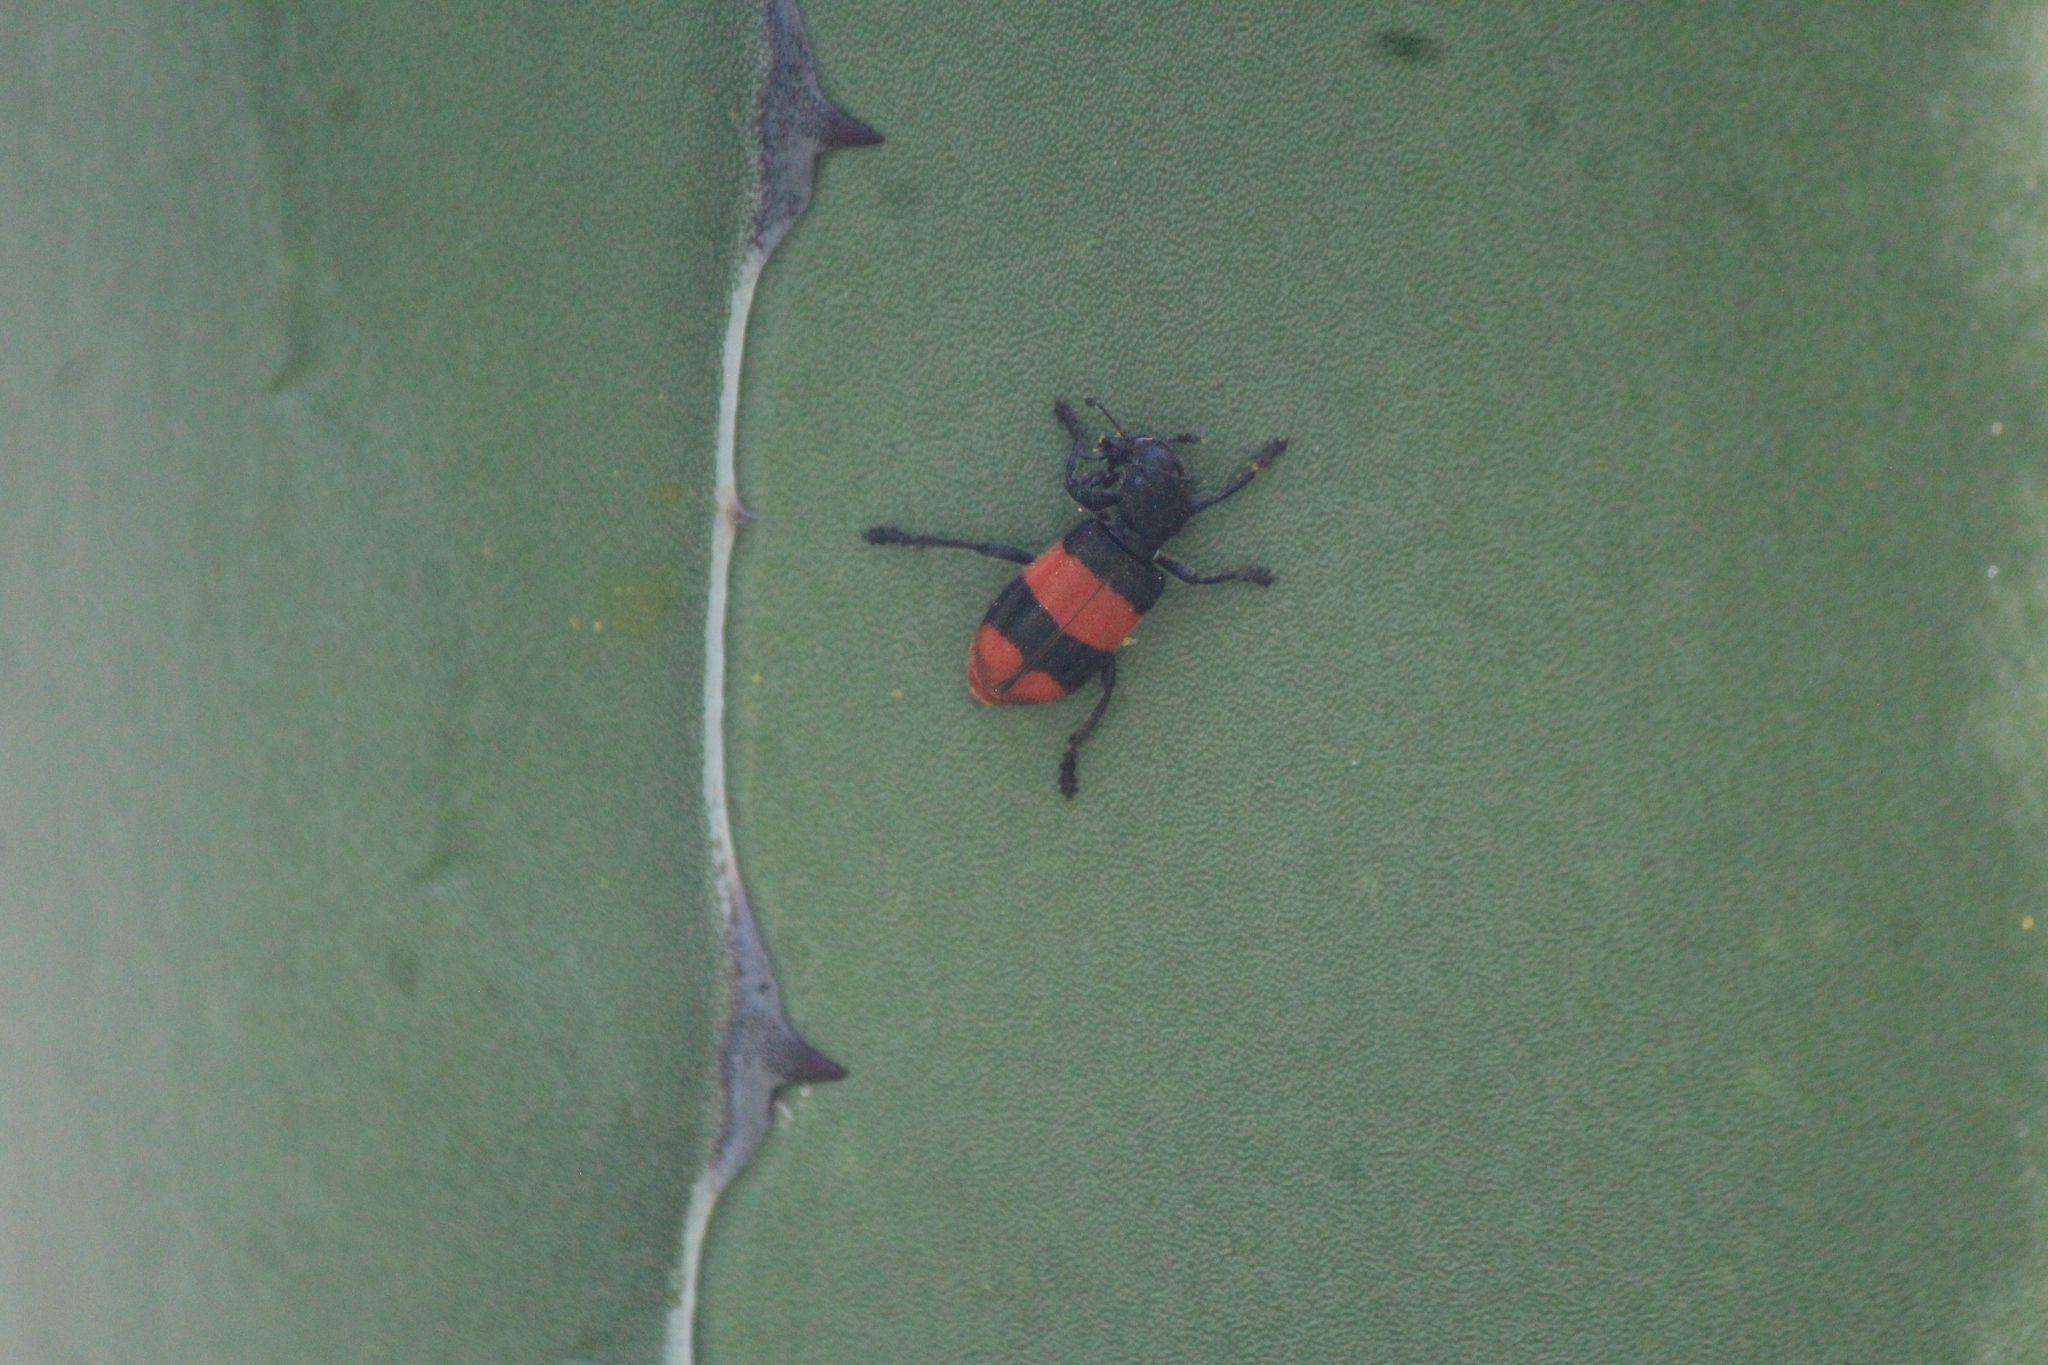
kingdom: Animalia
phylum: Arthropoda
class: Insecta
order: Coleoptera
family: Cleridae
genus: Enoclerus
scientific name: Enoclerus zonatus
